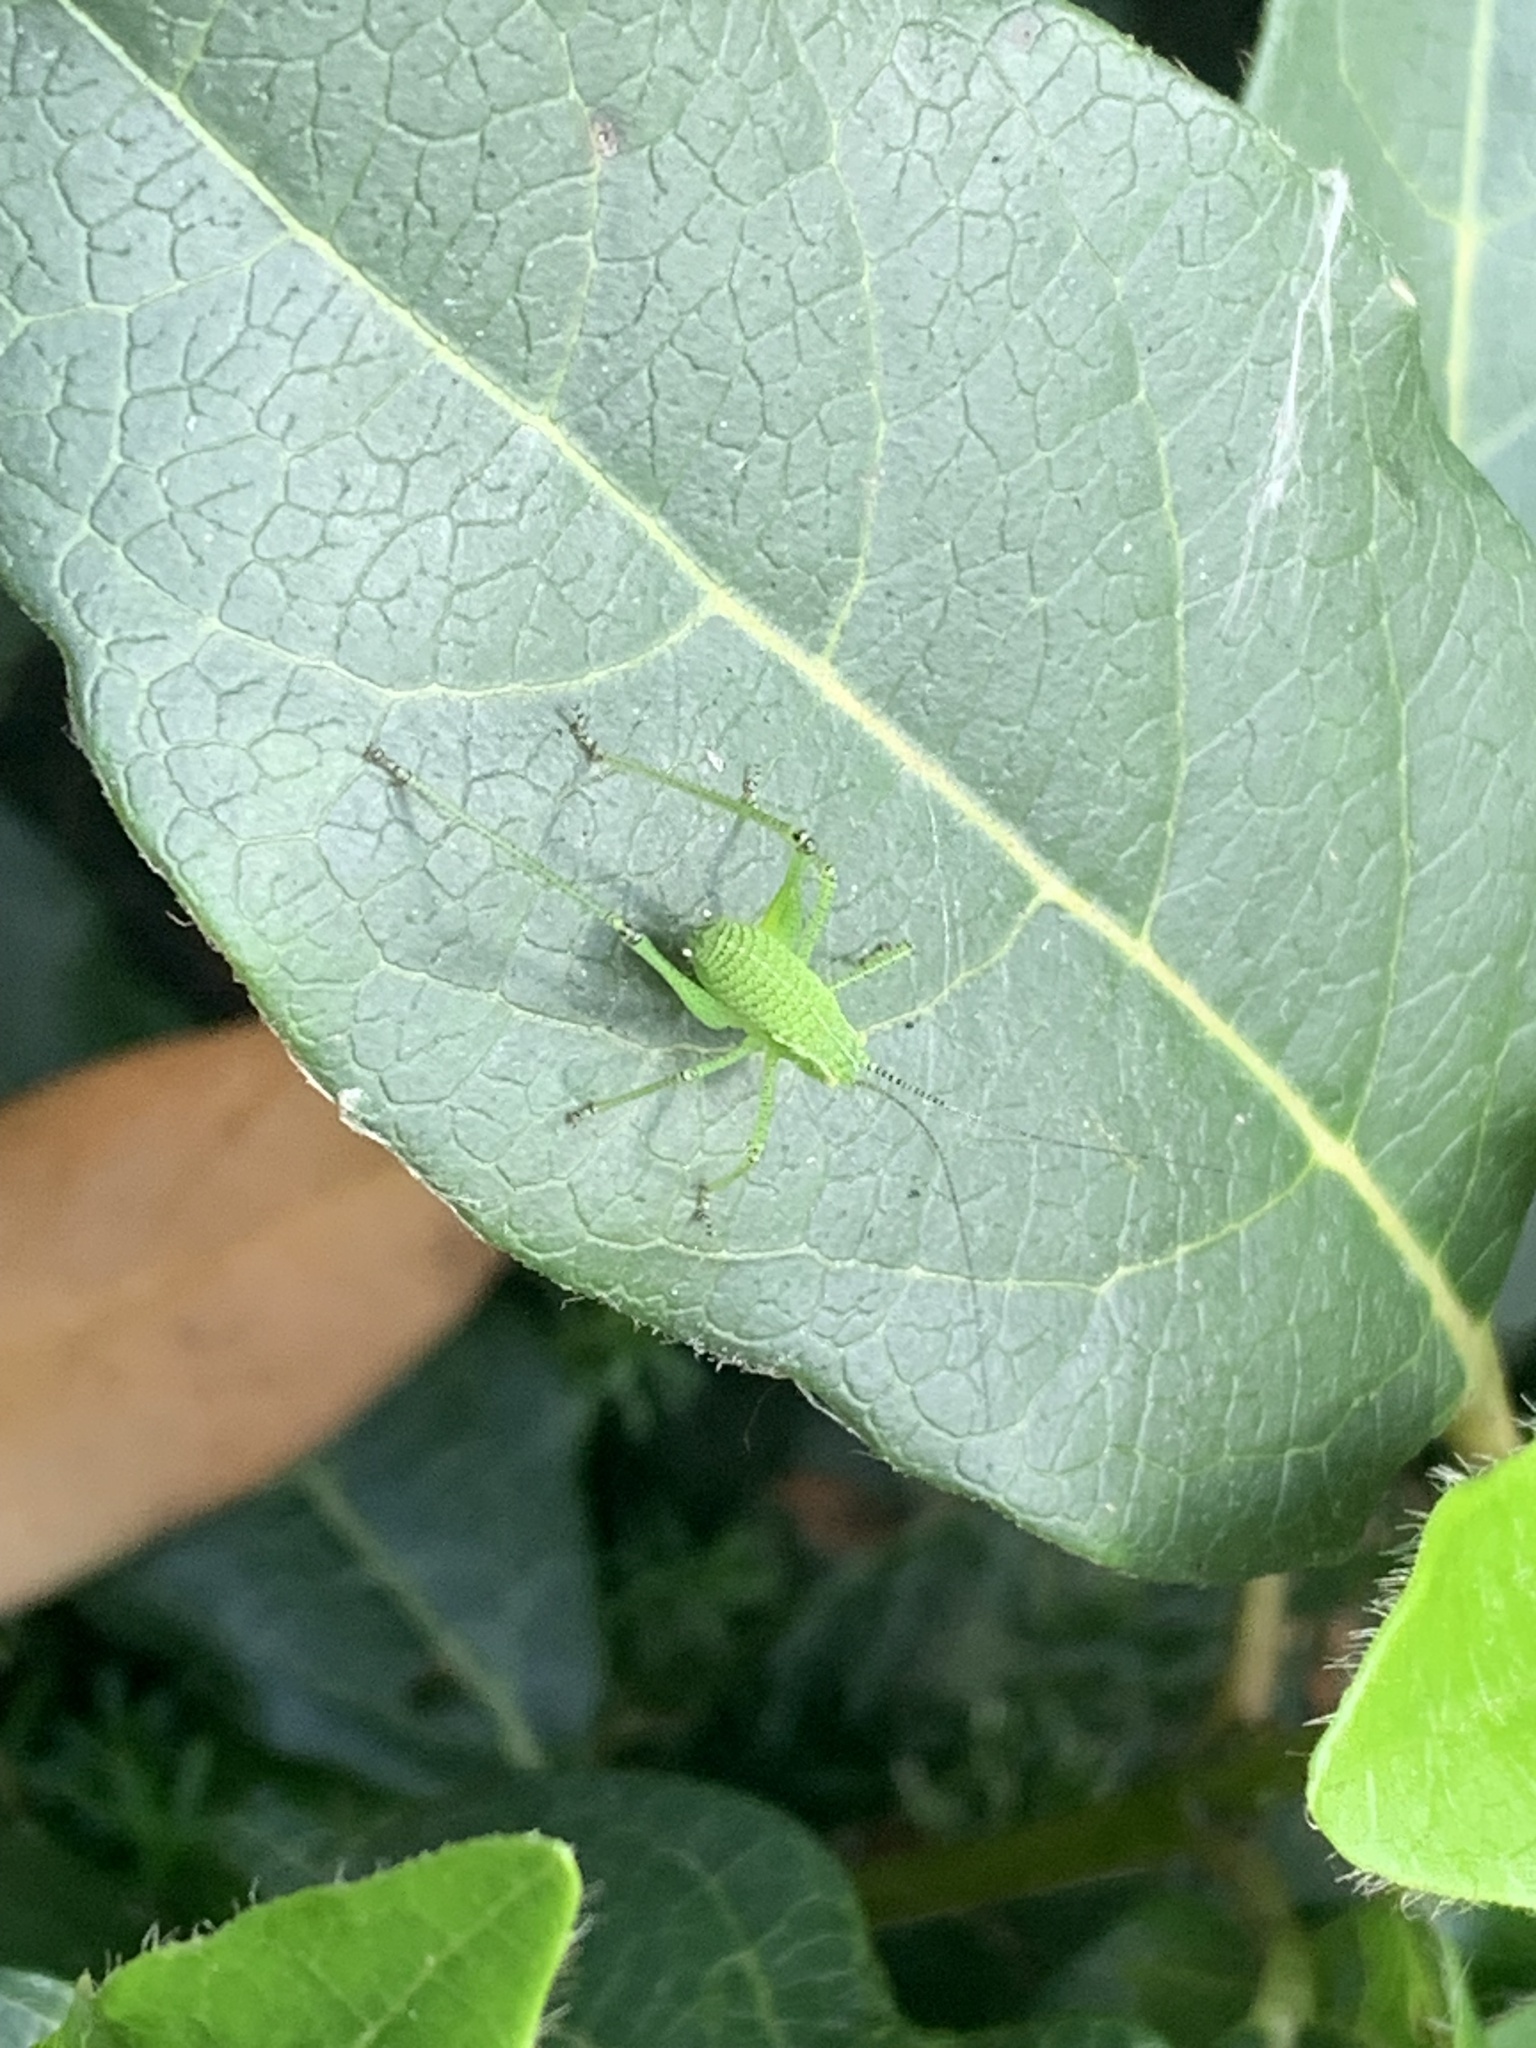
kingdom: Animalia
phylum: Arthropoda
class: Insecta
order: Orthoptera
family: Tettigoniidae
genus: Leptophyes
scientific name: Leptophyes punctatissima
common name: Speckled bush-cricket
